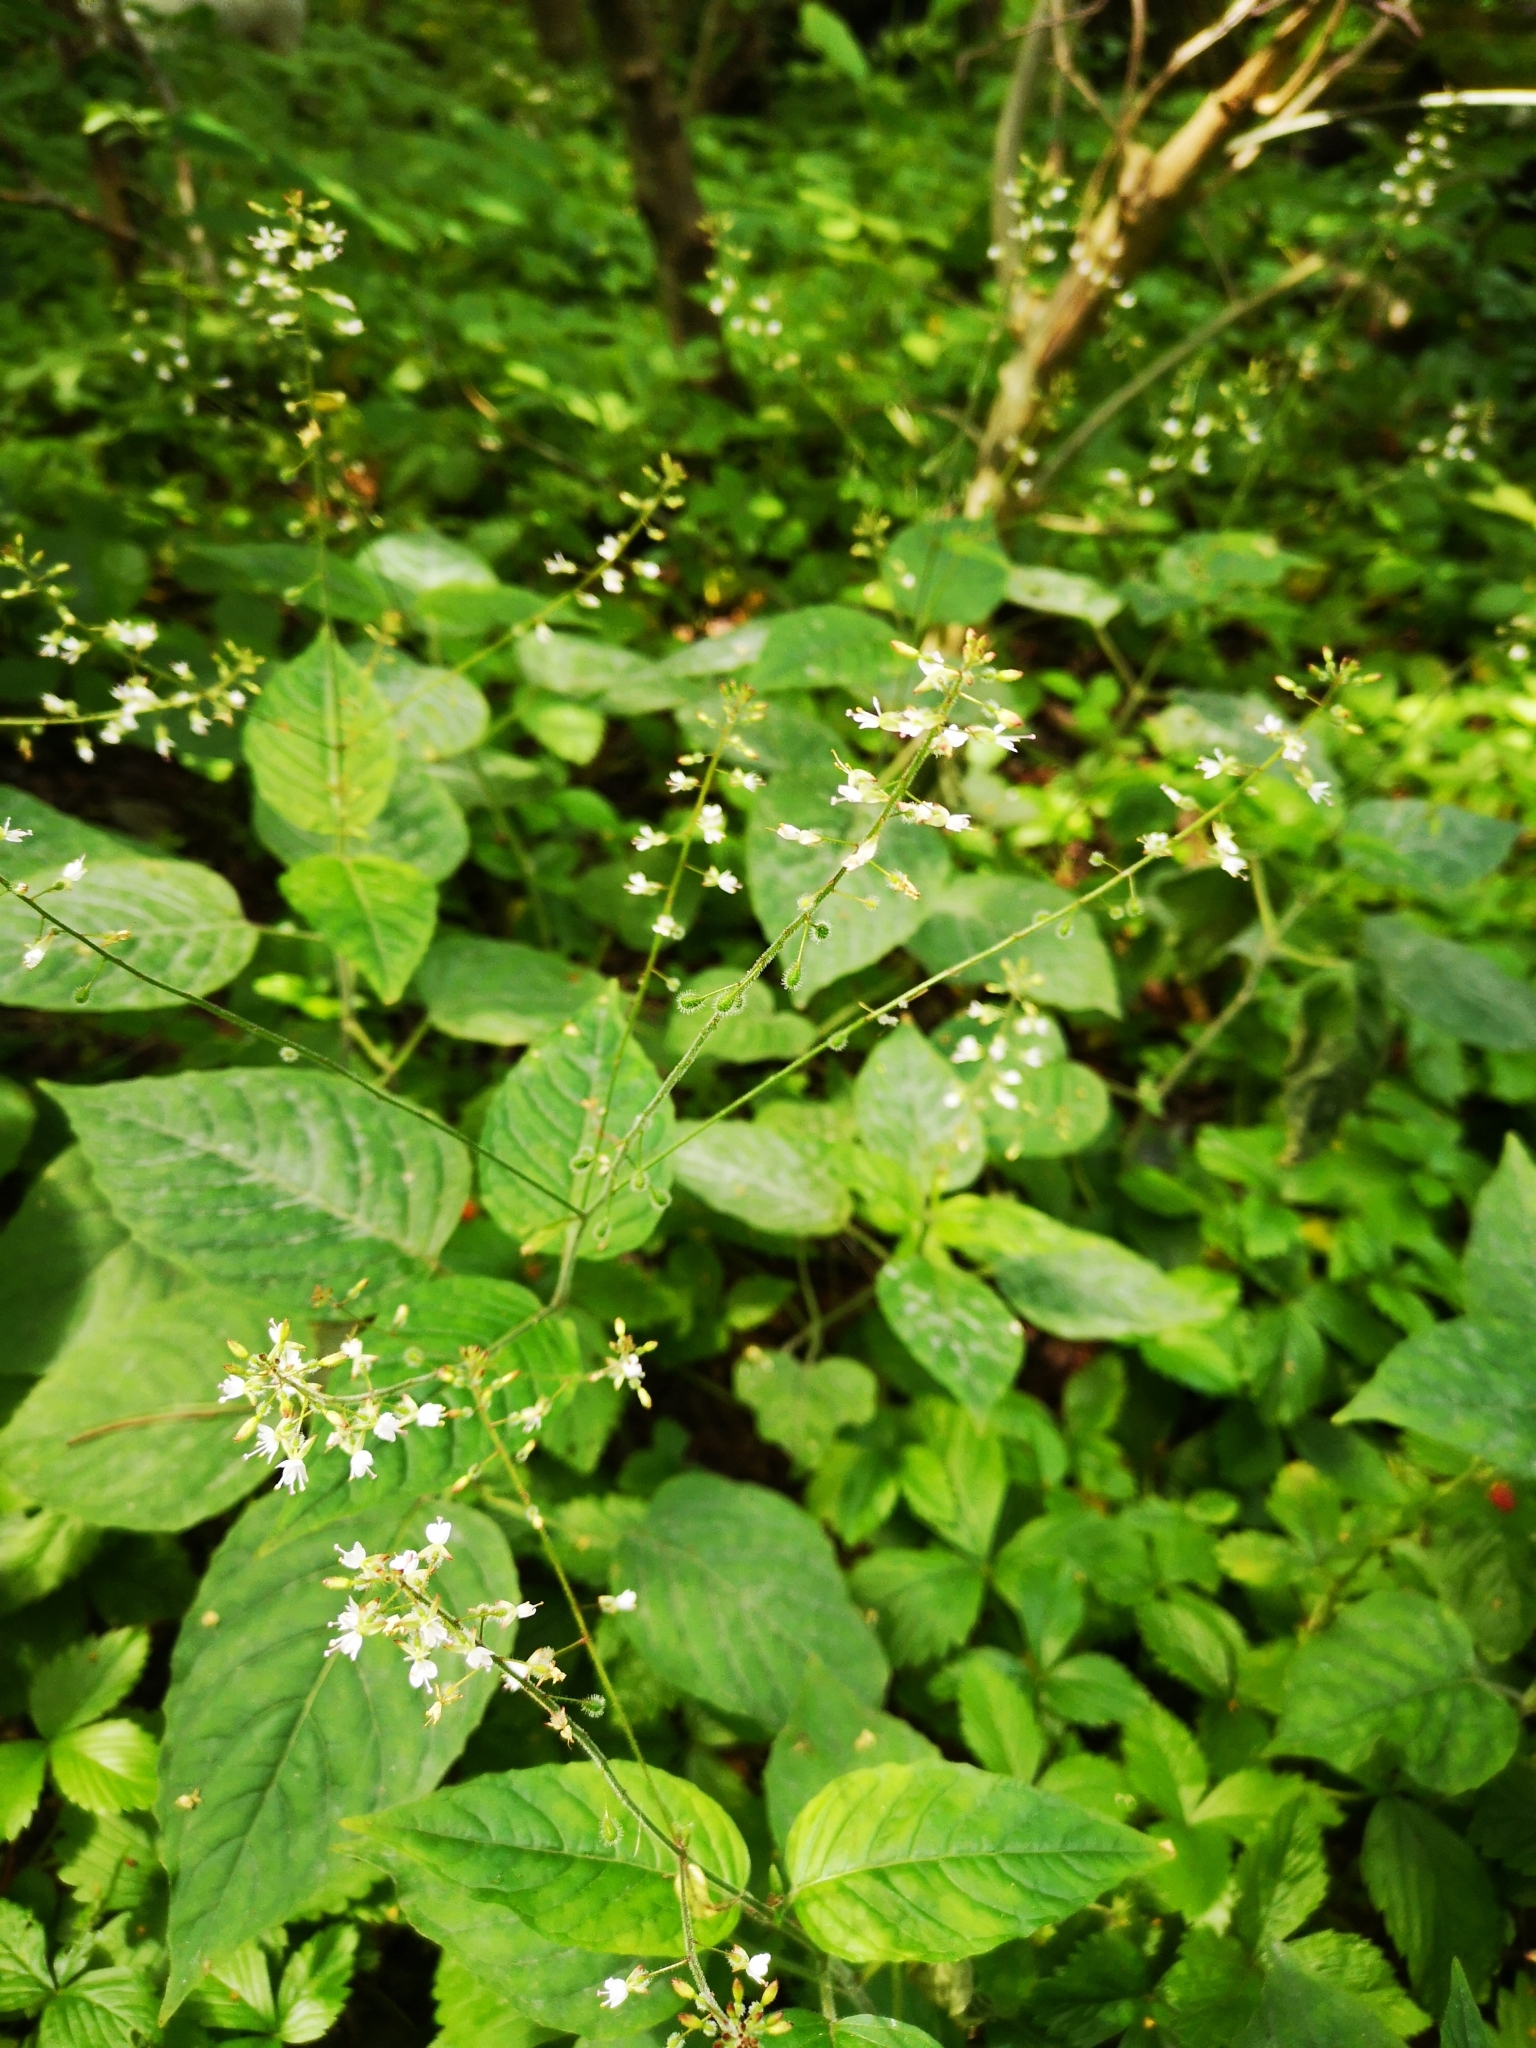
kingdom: Plantae
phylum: Tracheophyta
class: Magnoliopsida
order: Myrtales
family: Onagraceae
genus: Circaea
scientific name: Circaea lutetiana
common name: Enchanter's-nightshade
